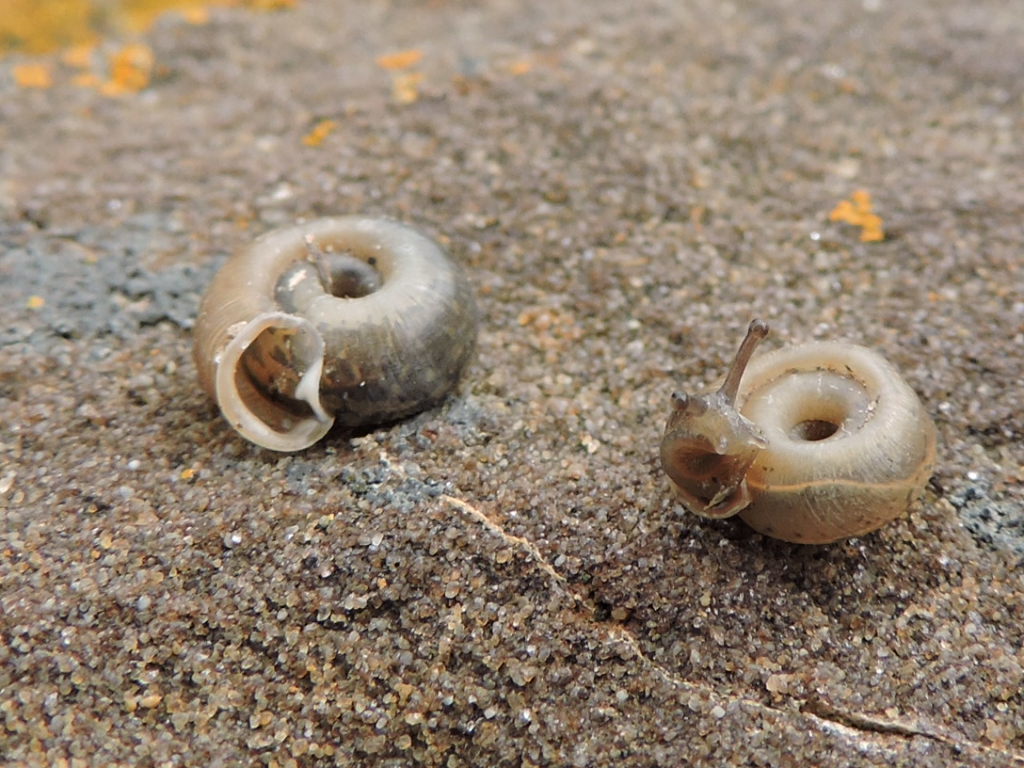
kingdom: Animalia
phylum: Mollusca
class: Gastropoda
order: Stylommatophora
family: Polygyridae
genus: Polygyra
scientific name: Polygyra cereolus
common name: Southern flatcone snail
